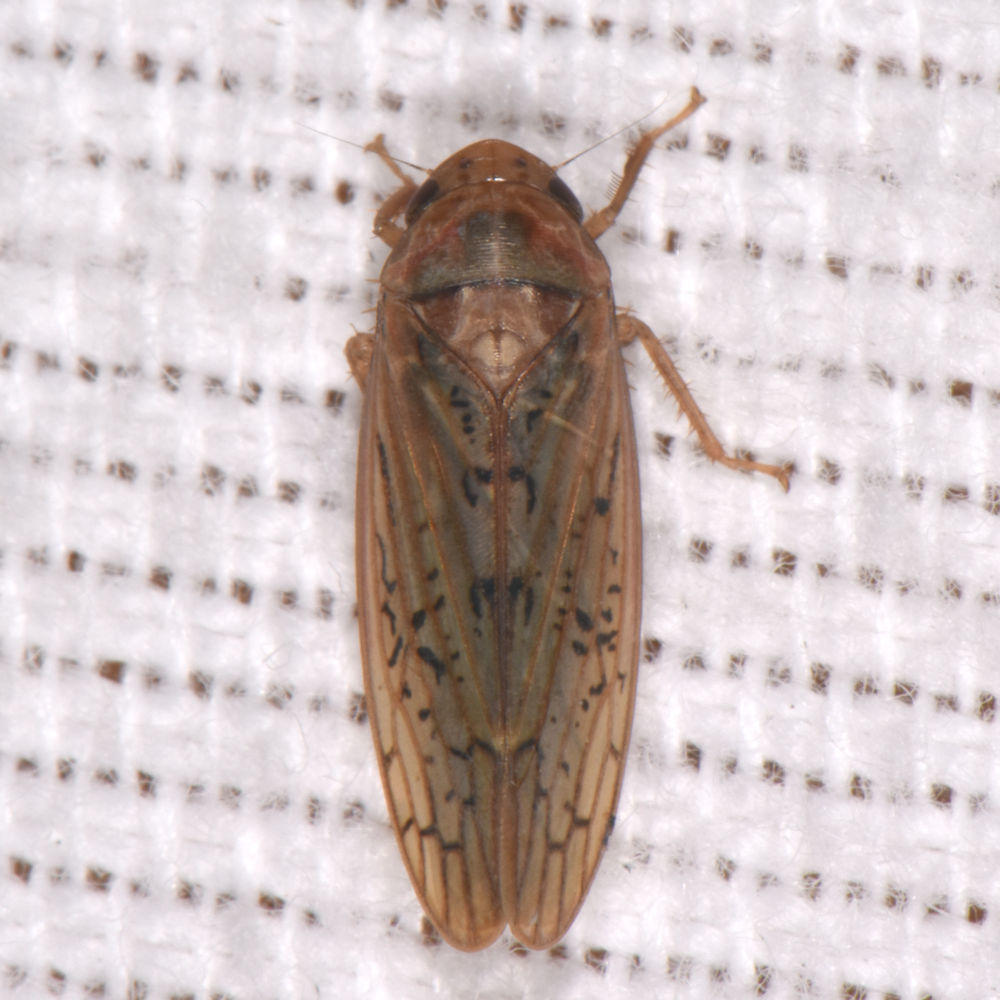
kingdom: Animalia
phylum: Arthropoda
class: Insecta
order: Hemiptera
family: Cicadellidae
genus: Ponana
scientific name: Ponana rubida
